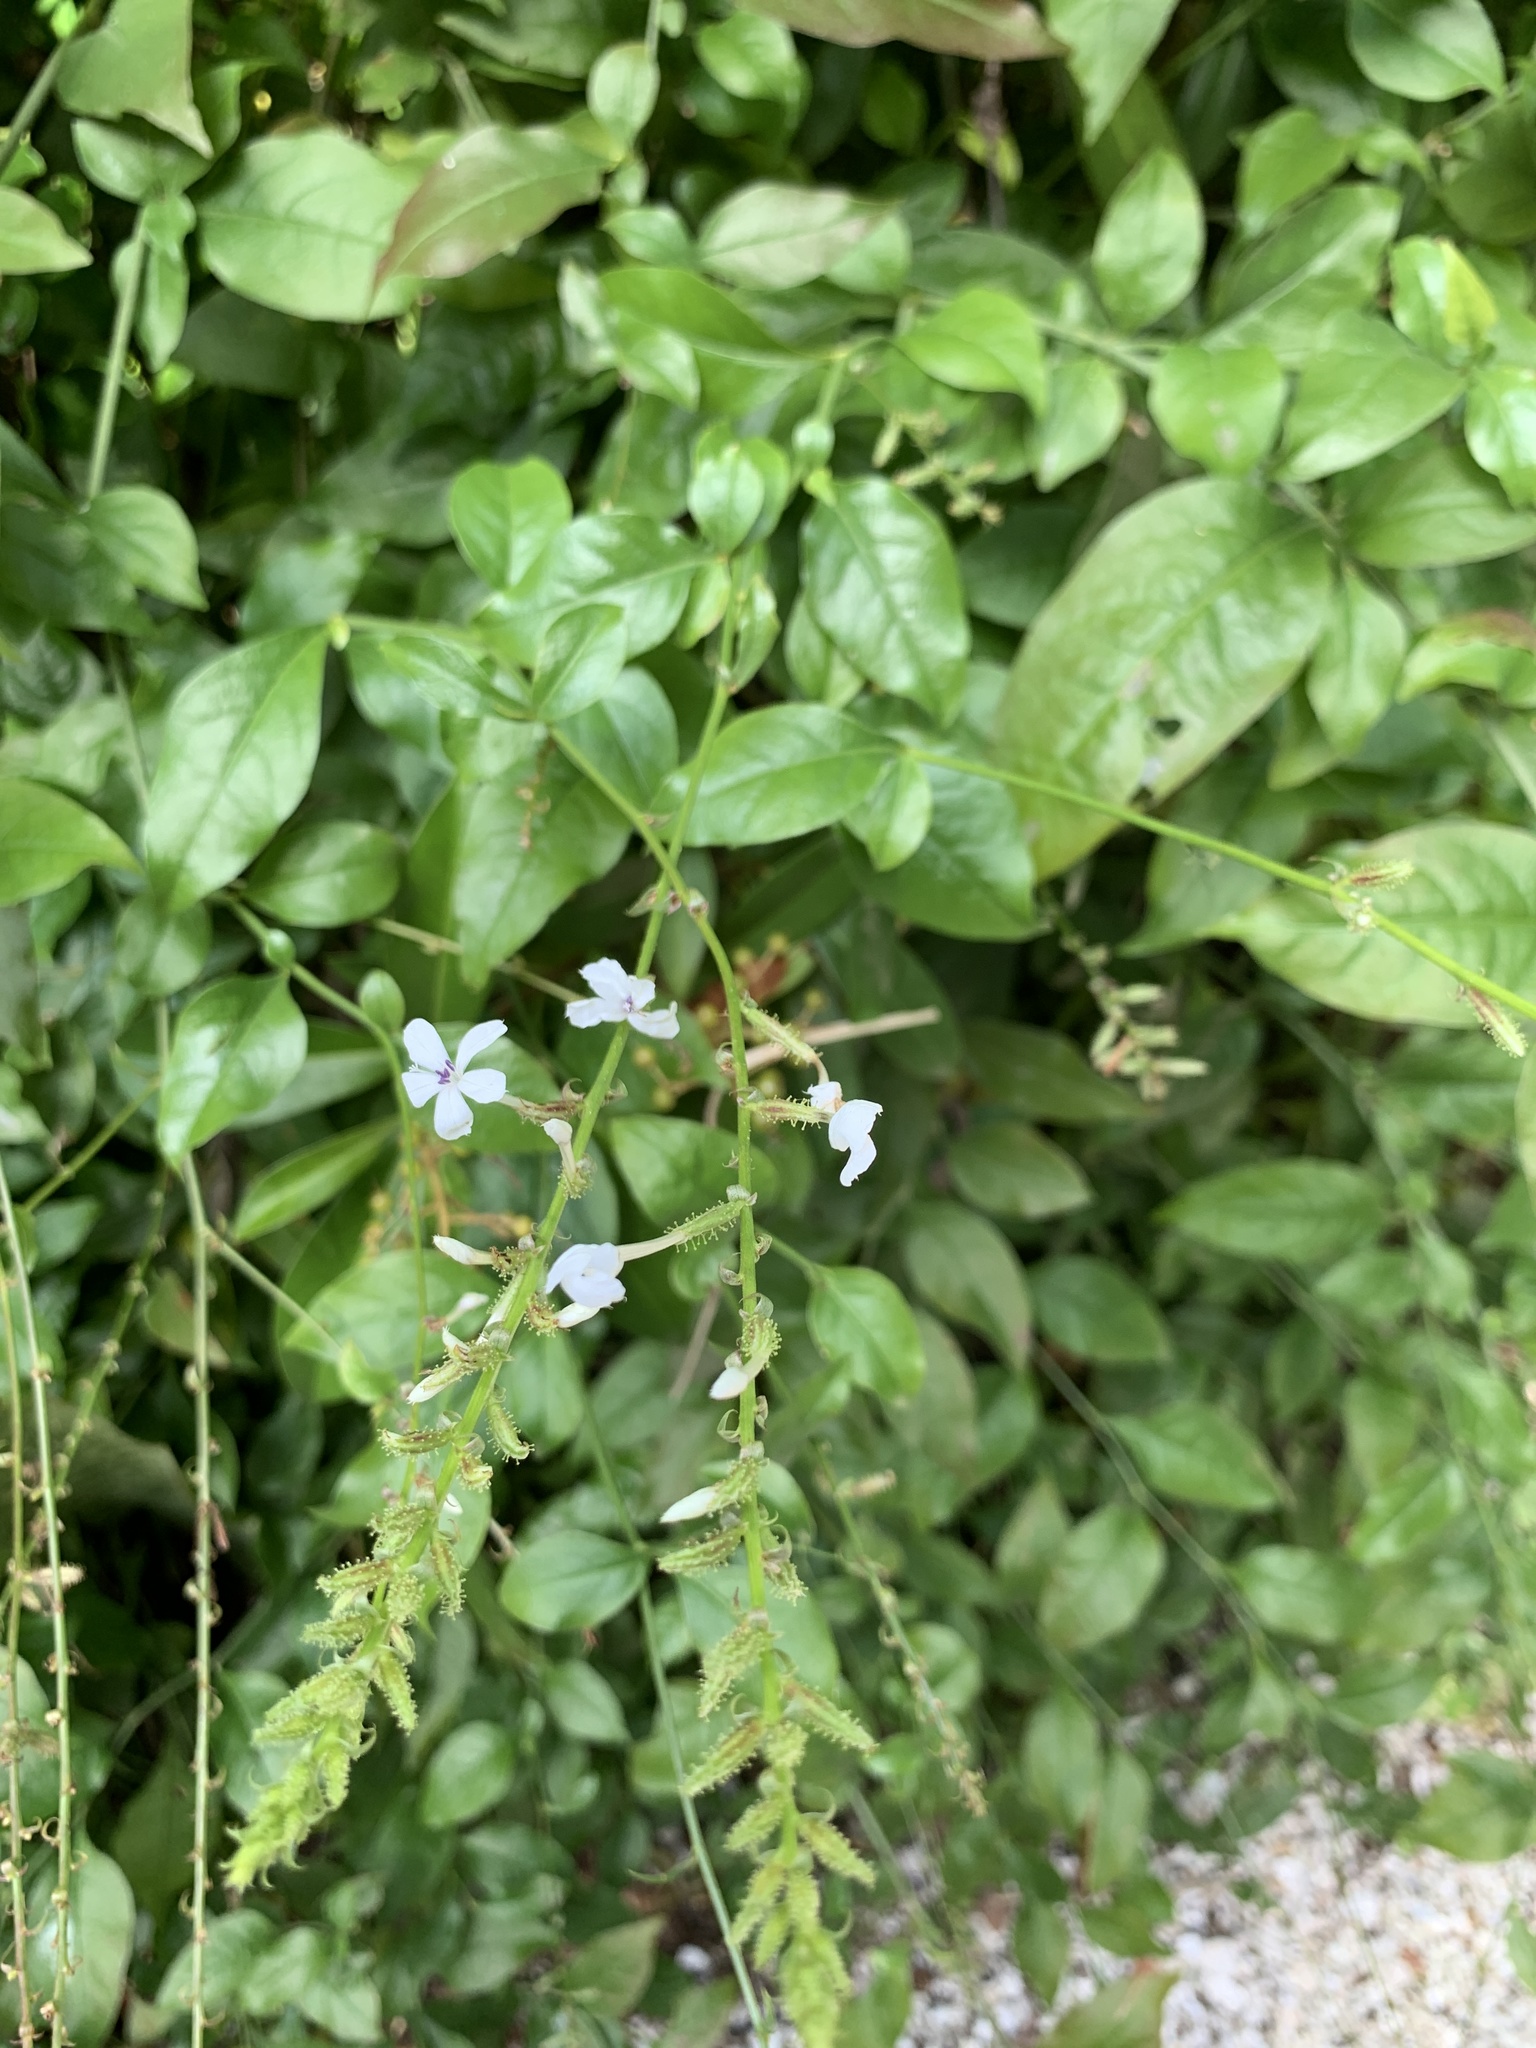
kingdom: Plantae
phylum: Tracheophyta
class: Magnoliopsida
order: Caryophyllales
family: Plumbaginaceae
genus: Plumbago
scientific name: Plumbago zeylanica
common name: Doctorbush
